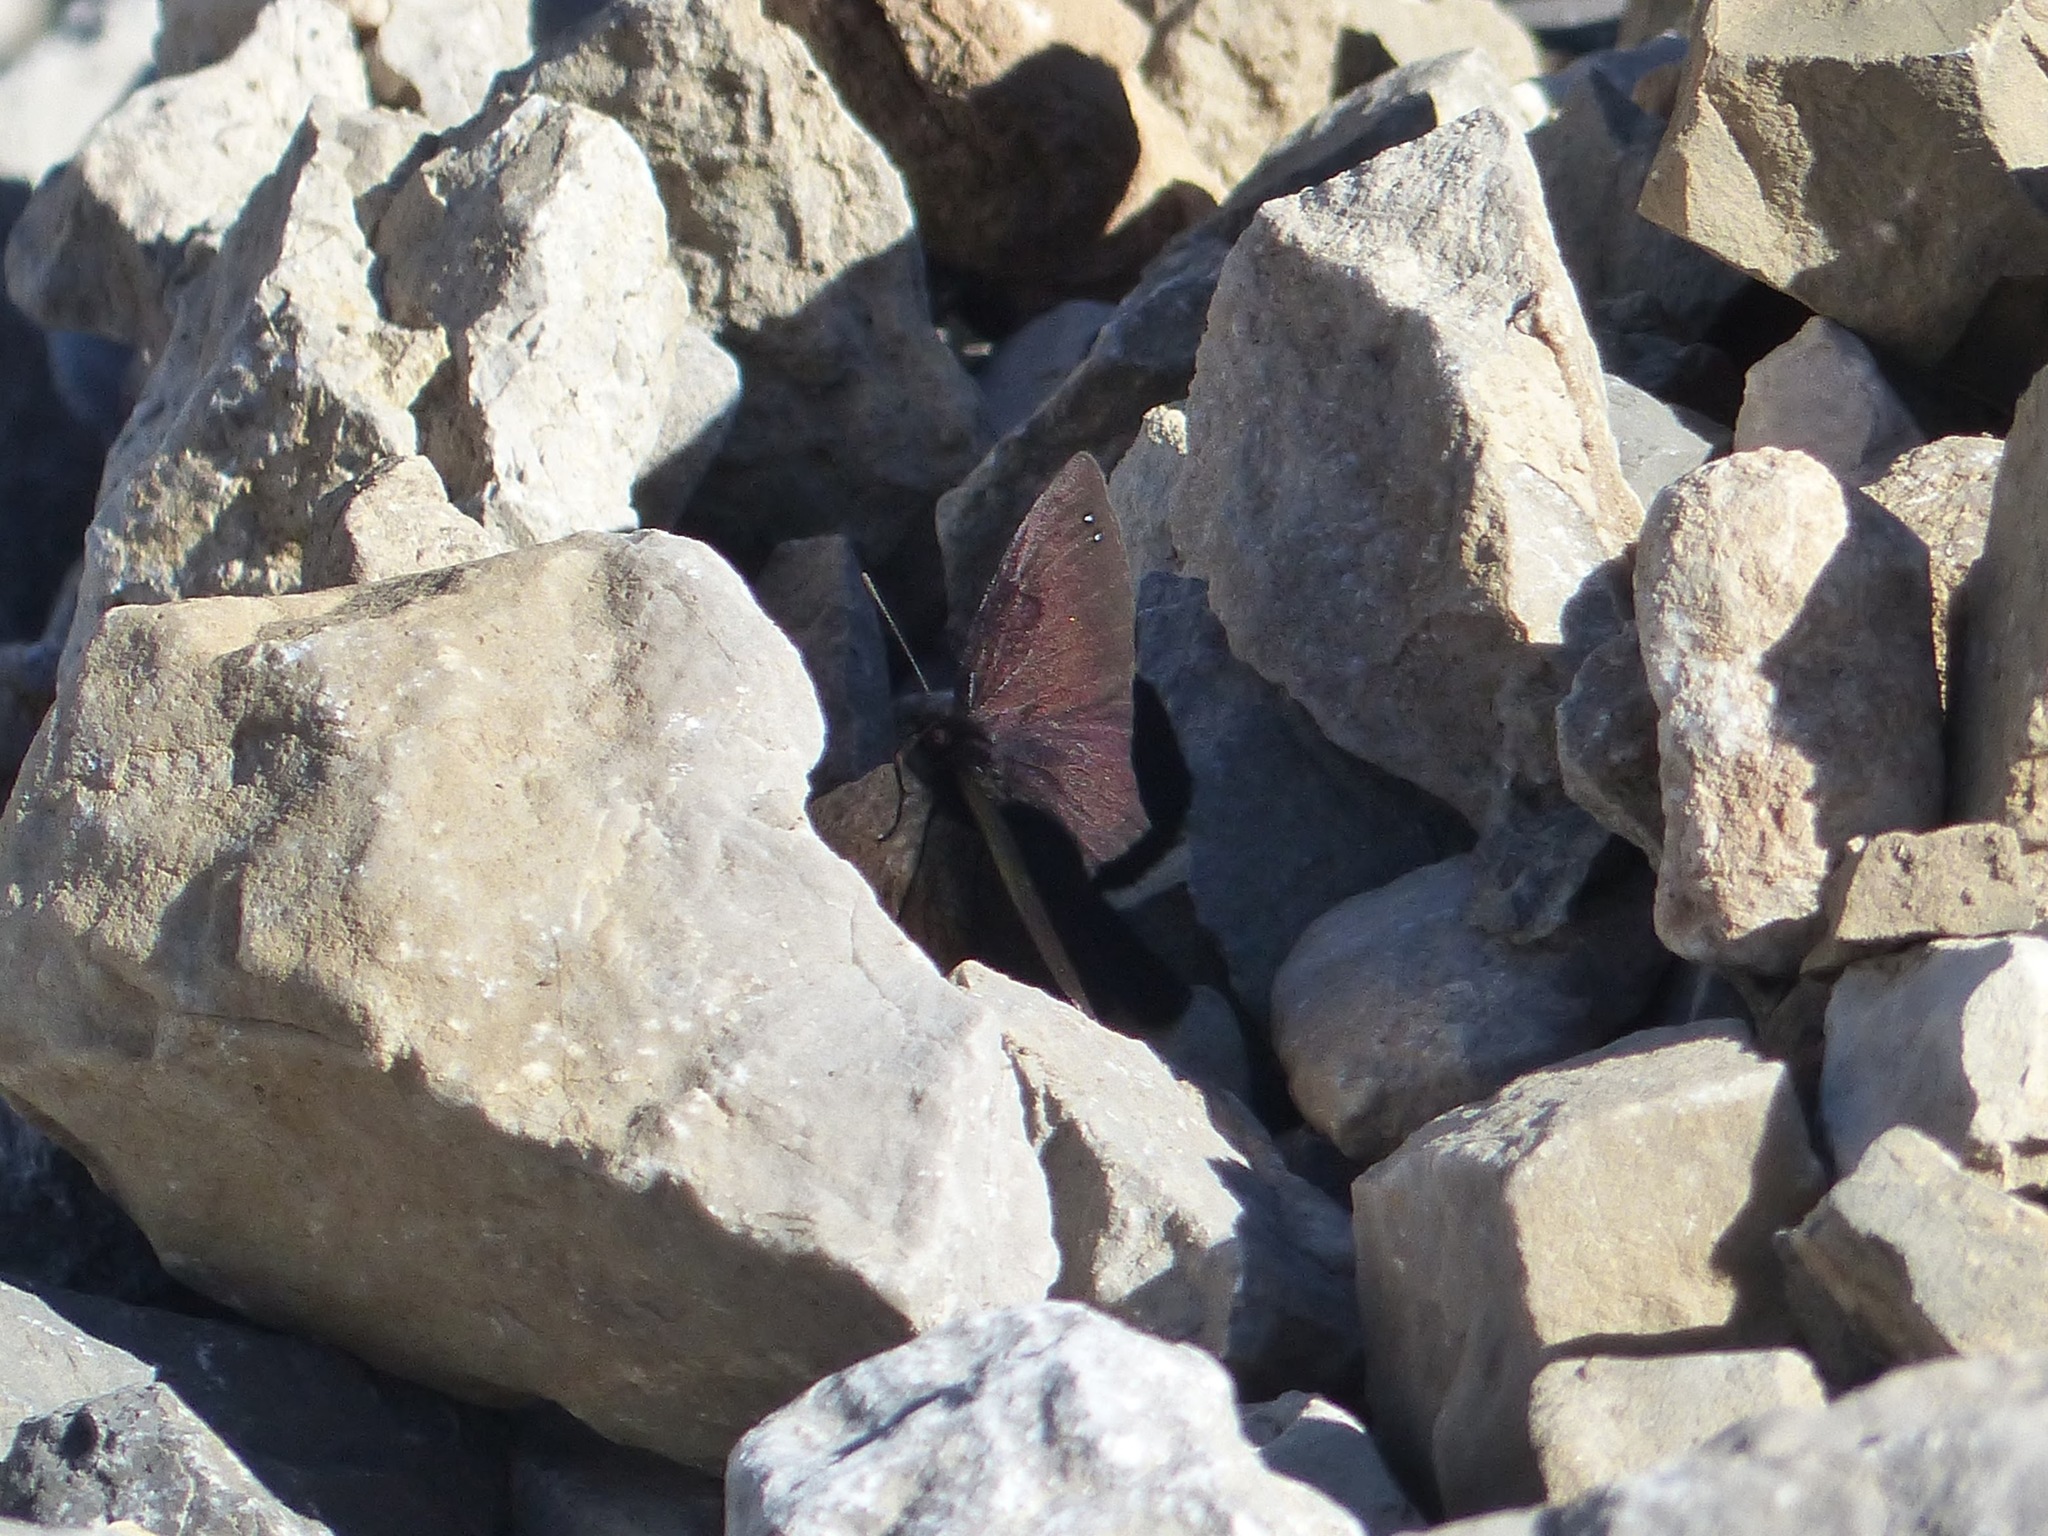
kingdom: Animalia
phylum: Arthropoda
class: Insecta
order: Lepidoptera
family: Nymphalidae
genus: Erebia
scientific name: Erebia lefebvrei
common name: Lefèbvre’s ringlet
